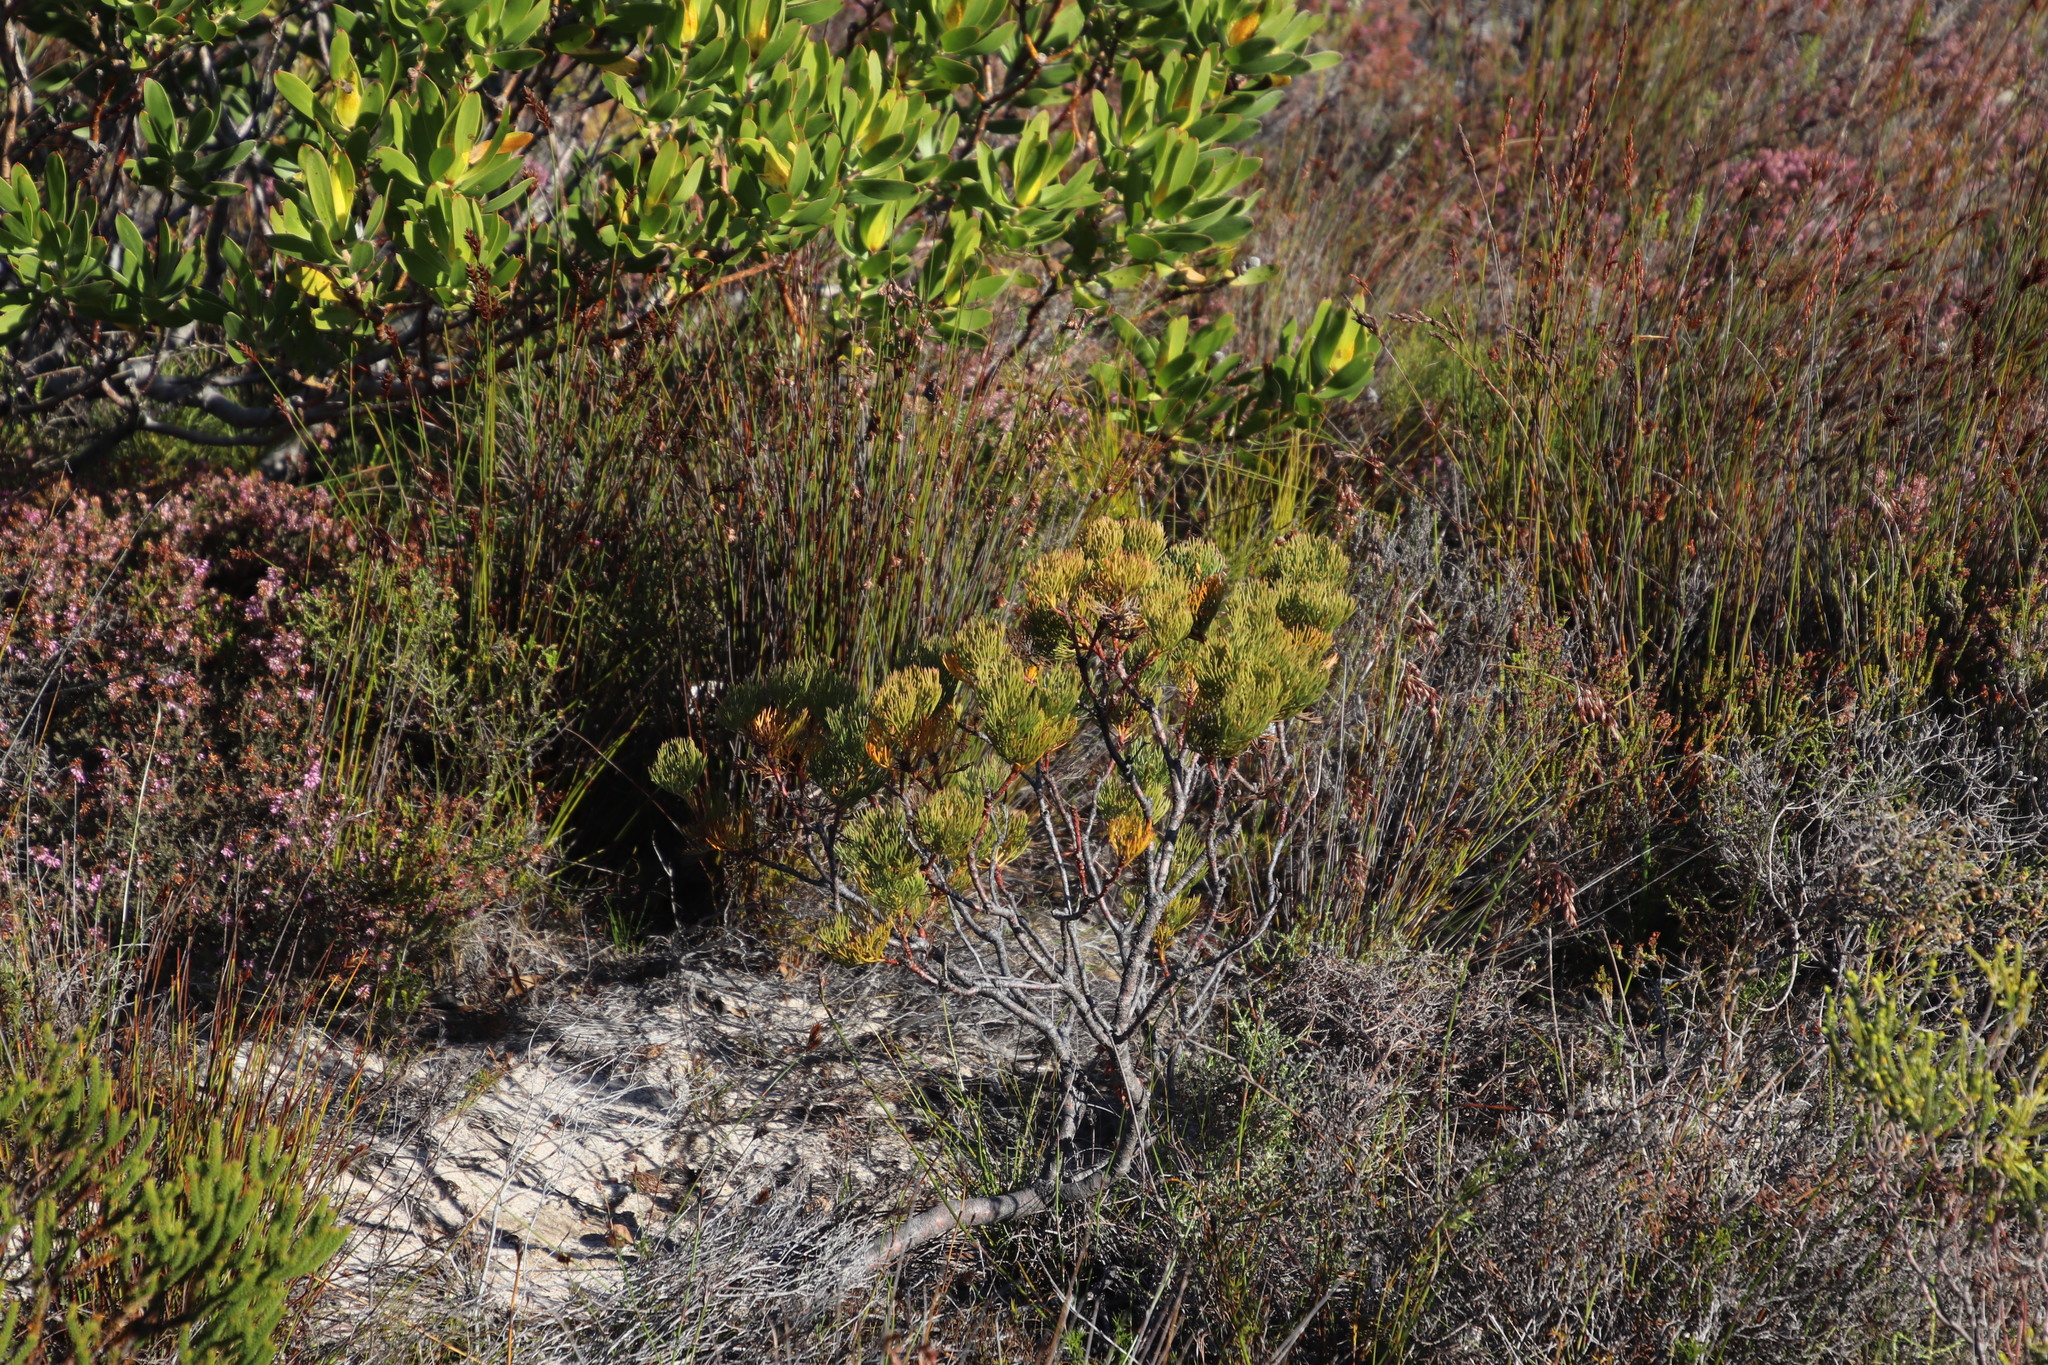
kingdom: Plantae
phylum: Tracheophyta
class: Magnoliopsida
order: Proteales
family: Proteaceae
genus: Serruria
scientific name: Serruria glomerata
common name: Cluster spiderhead
